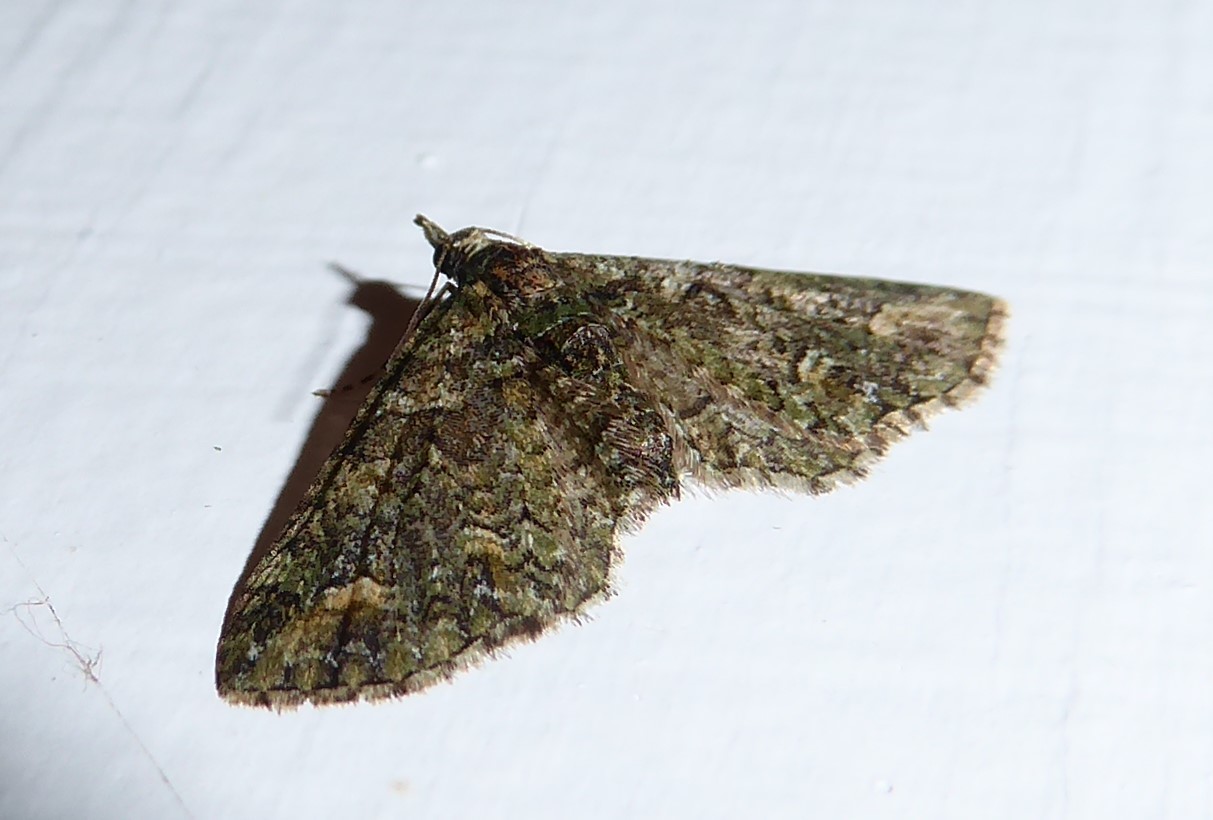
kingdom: Animalia
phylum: Arthropoda
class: Insecta
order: Lepidoptera
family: Geometridae
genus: Idaea
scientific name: Idaea mutanda
